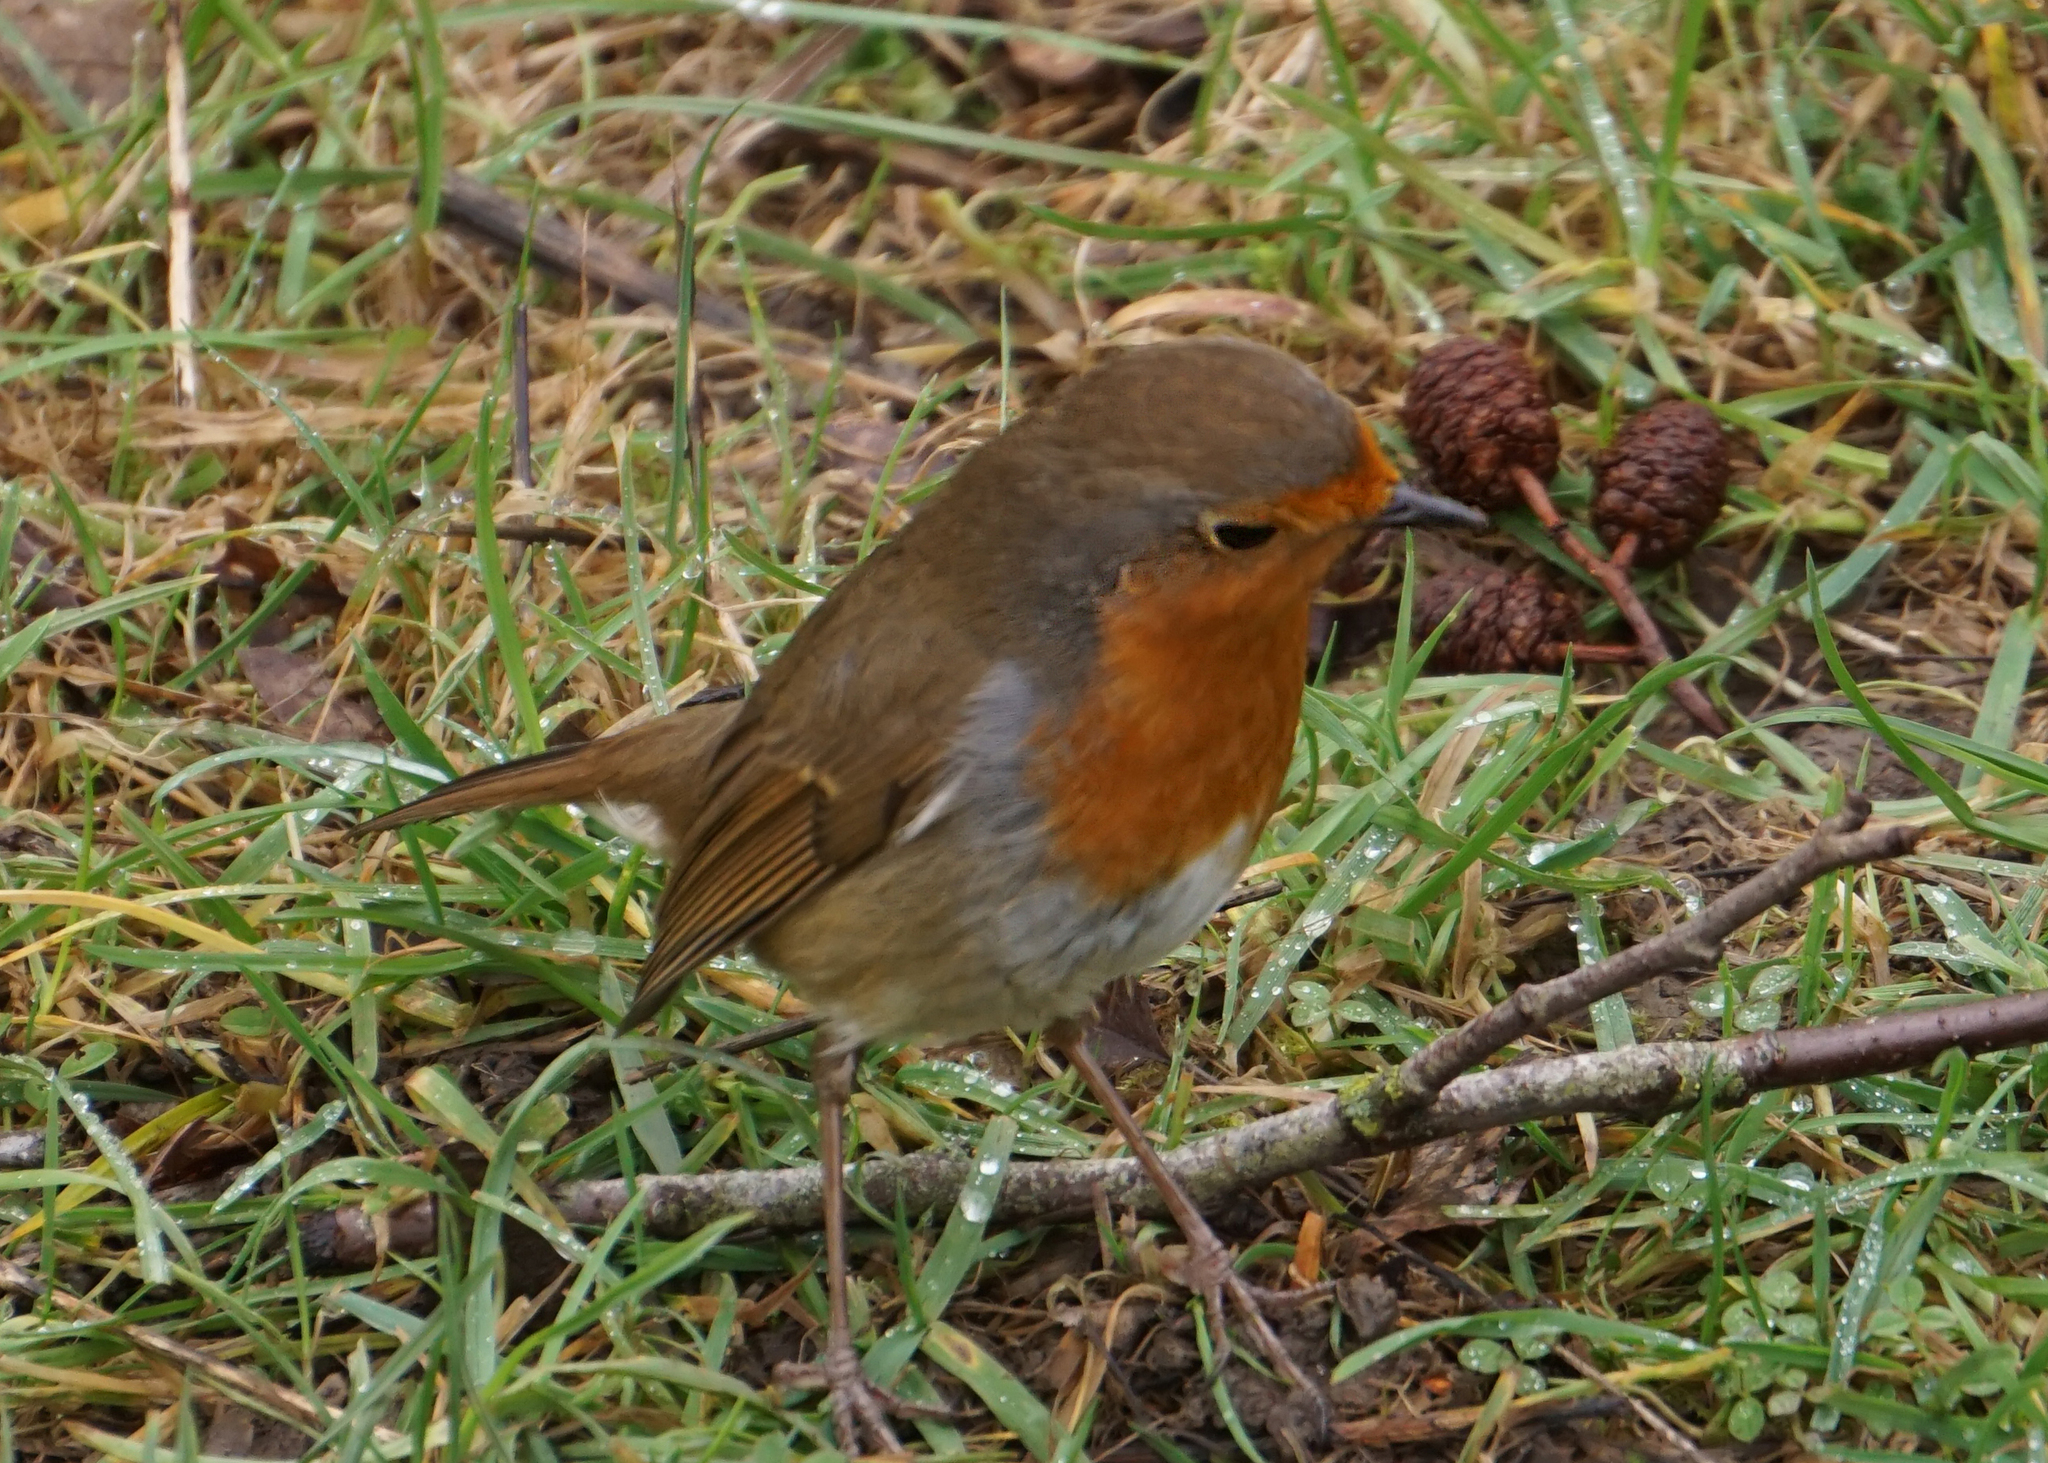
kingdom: Animalia
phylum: Chordata
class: Aves
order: Passeriformes
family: Muscicapidae
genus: Erithacus
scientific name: Erithacus rubecula
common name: European robin
